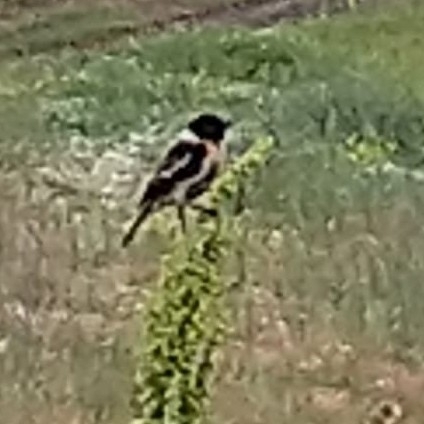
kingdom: Animalia
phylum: Chordata
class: Aves
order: Passeriformes
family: Muscicapidae
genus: Saxicola
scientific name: Saxicola maurus
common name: Siberian stonechat
